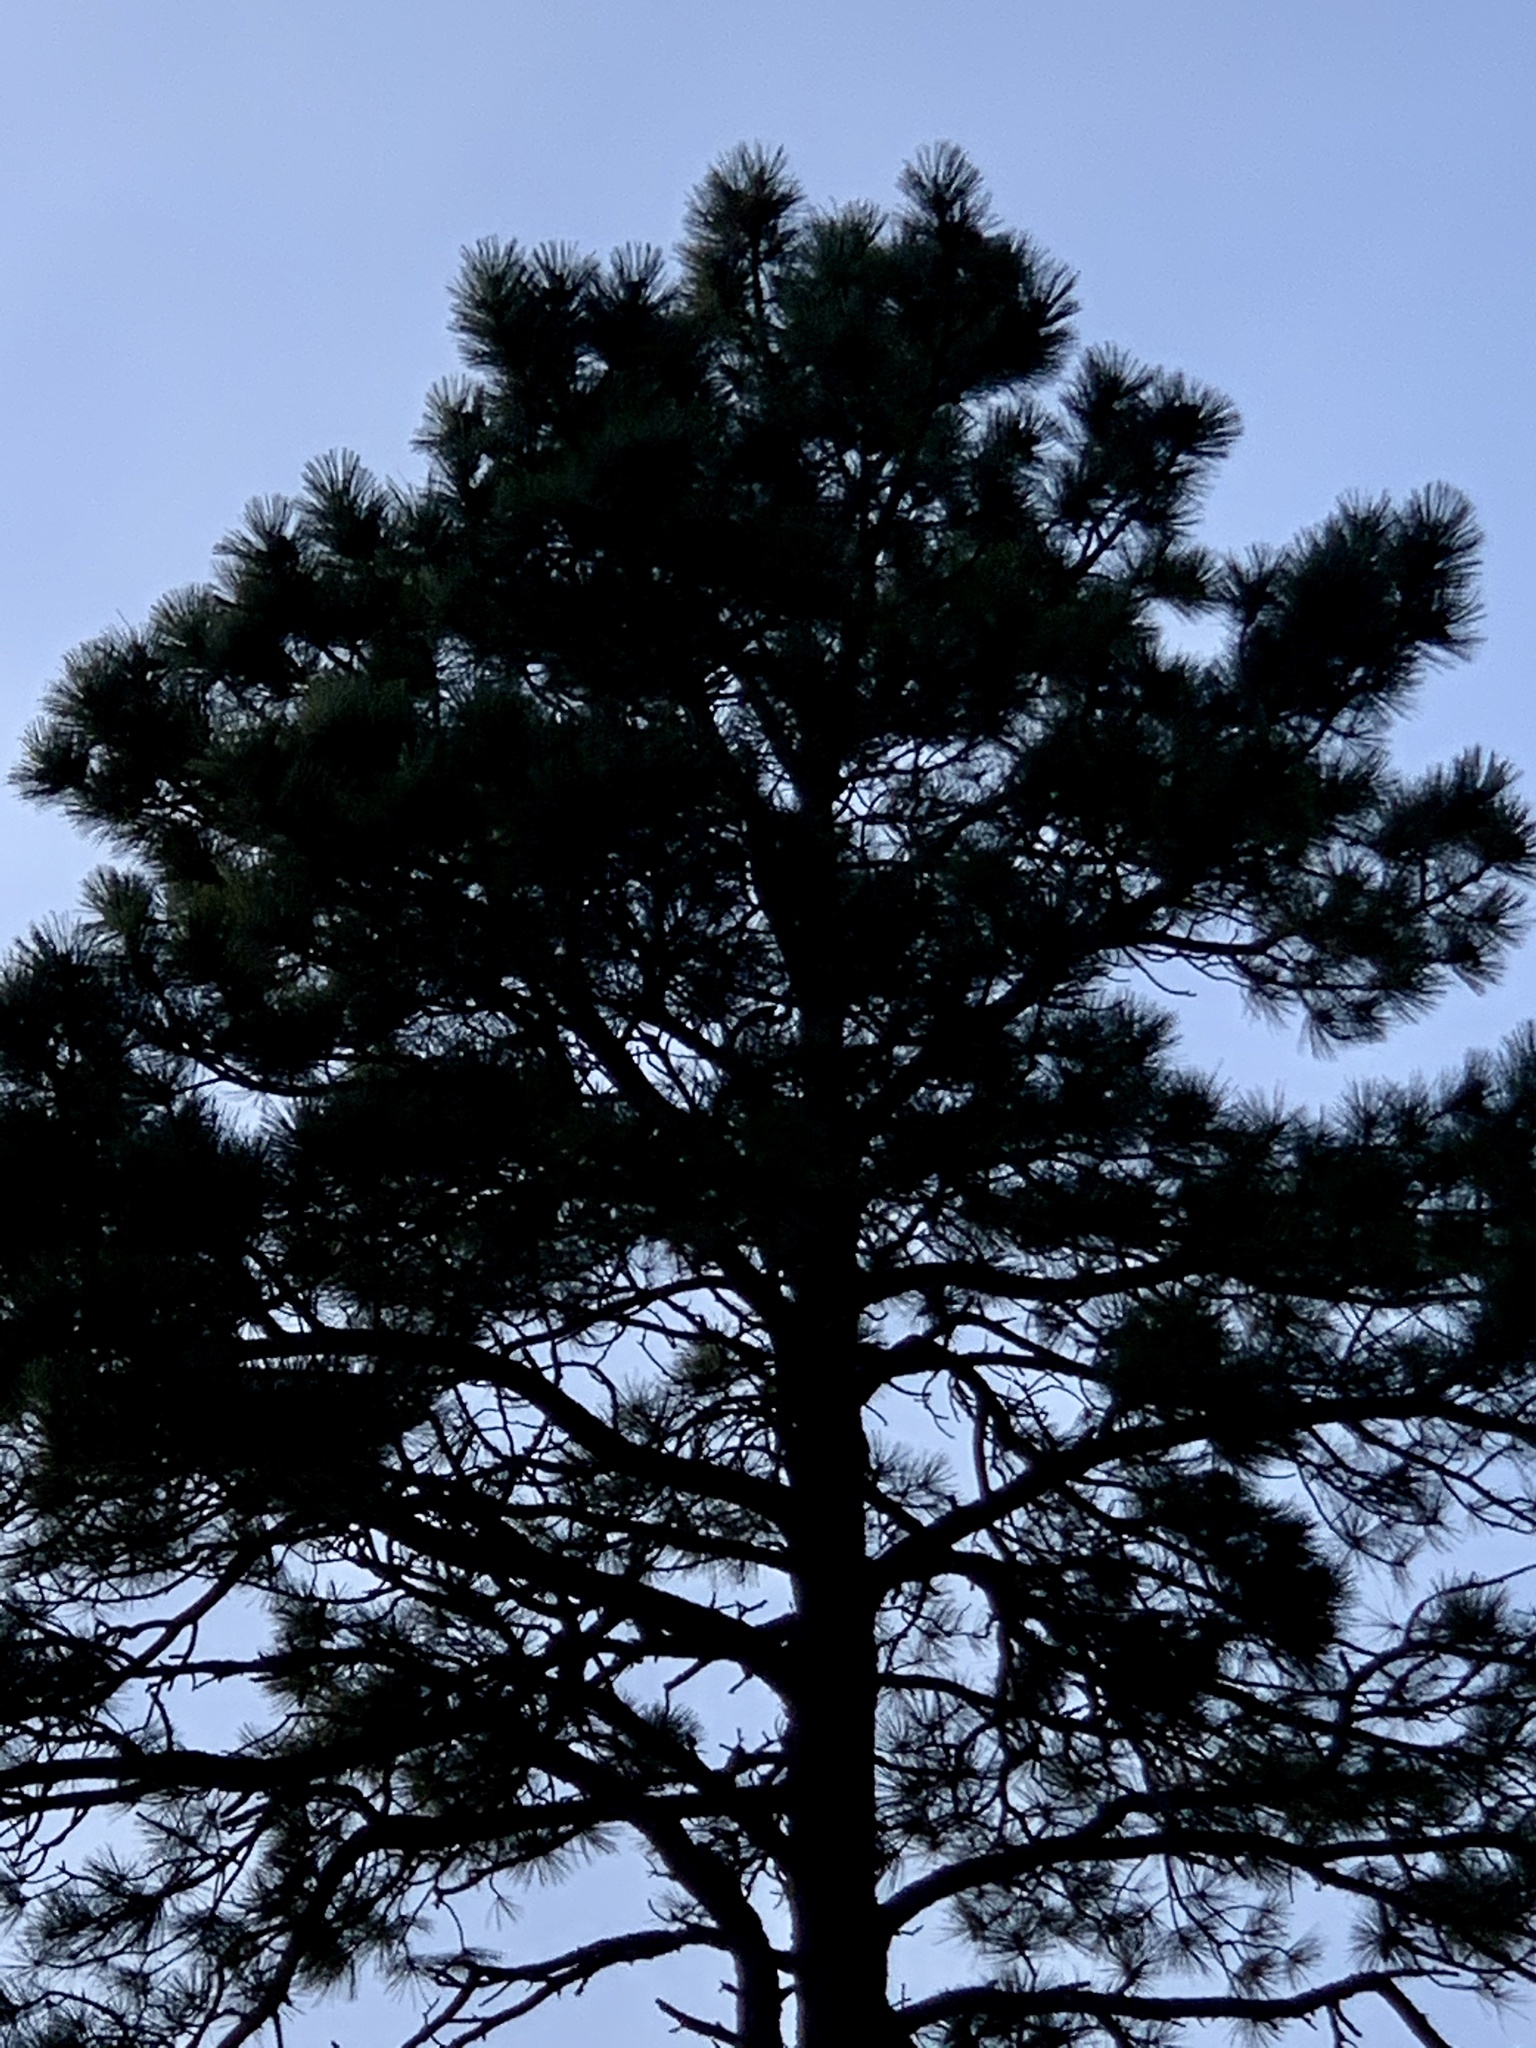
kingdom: Plantae
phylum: Tracheophyta
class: Pinopsida
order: Pinales
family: Pinaceae
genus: Pinus
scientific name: Pinus ponderosa
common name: Western yellow-pine
